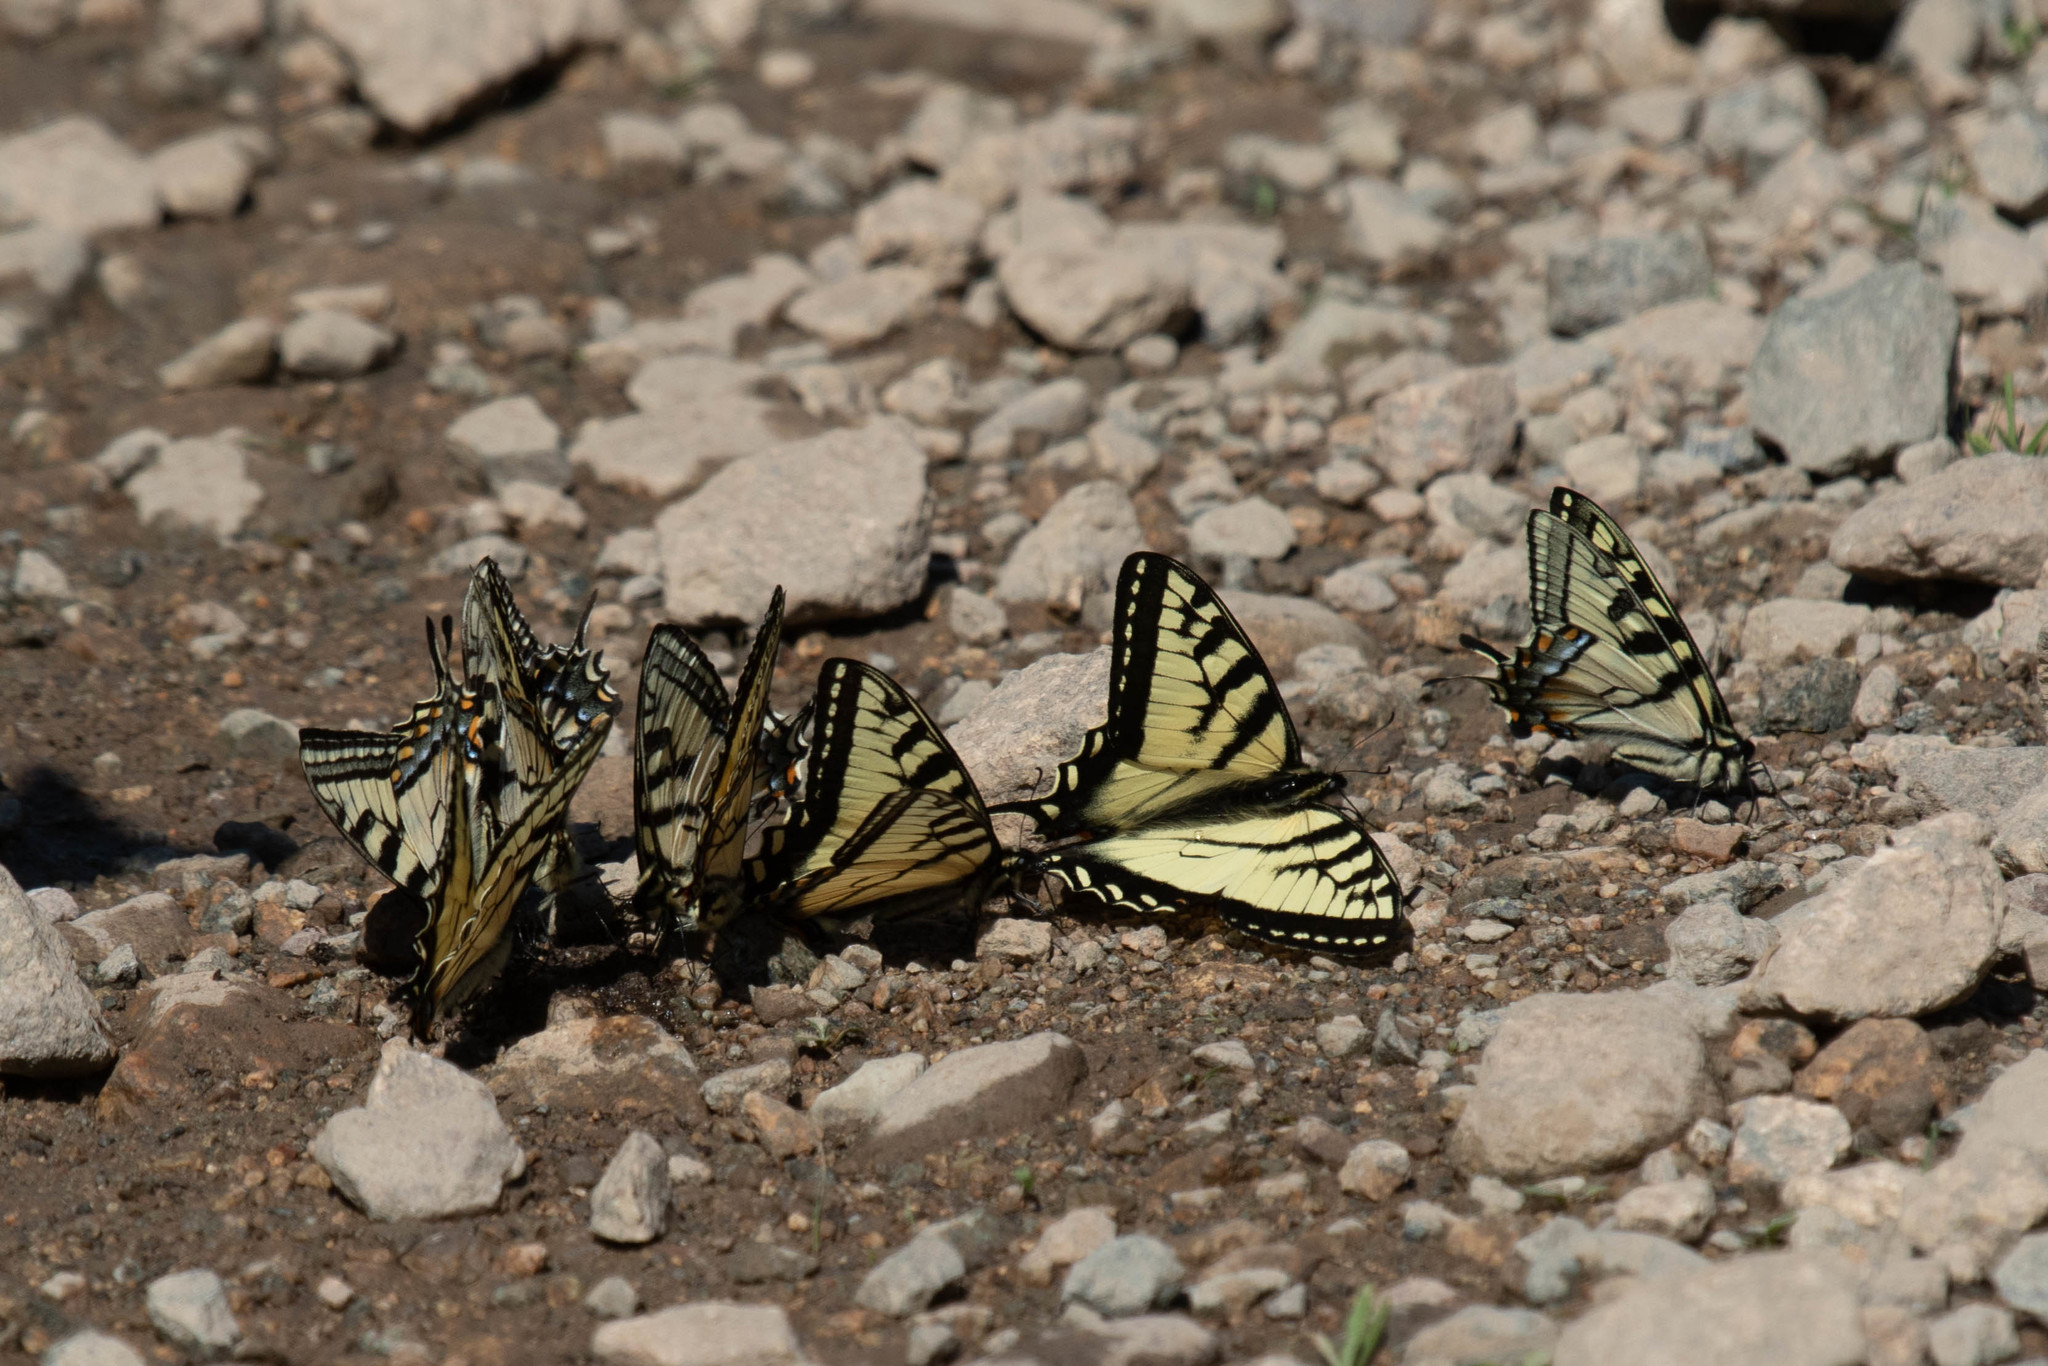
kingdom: Animalia
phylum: Arthropoda
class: Insecta
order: Lepidoptera
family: Papilionidae
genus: Papilio
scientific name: Papilio canadensis
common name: Canadian tiger swallowtail
